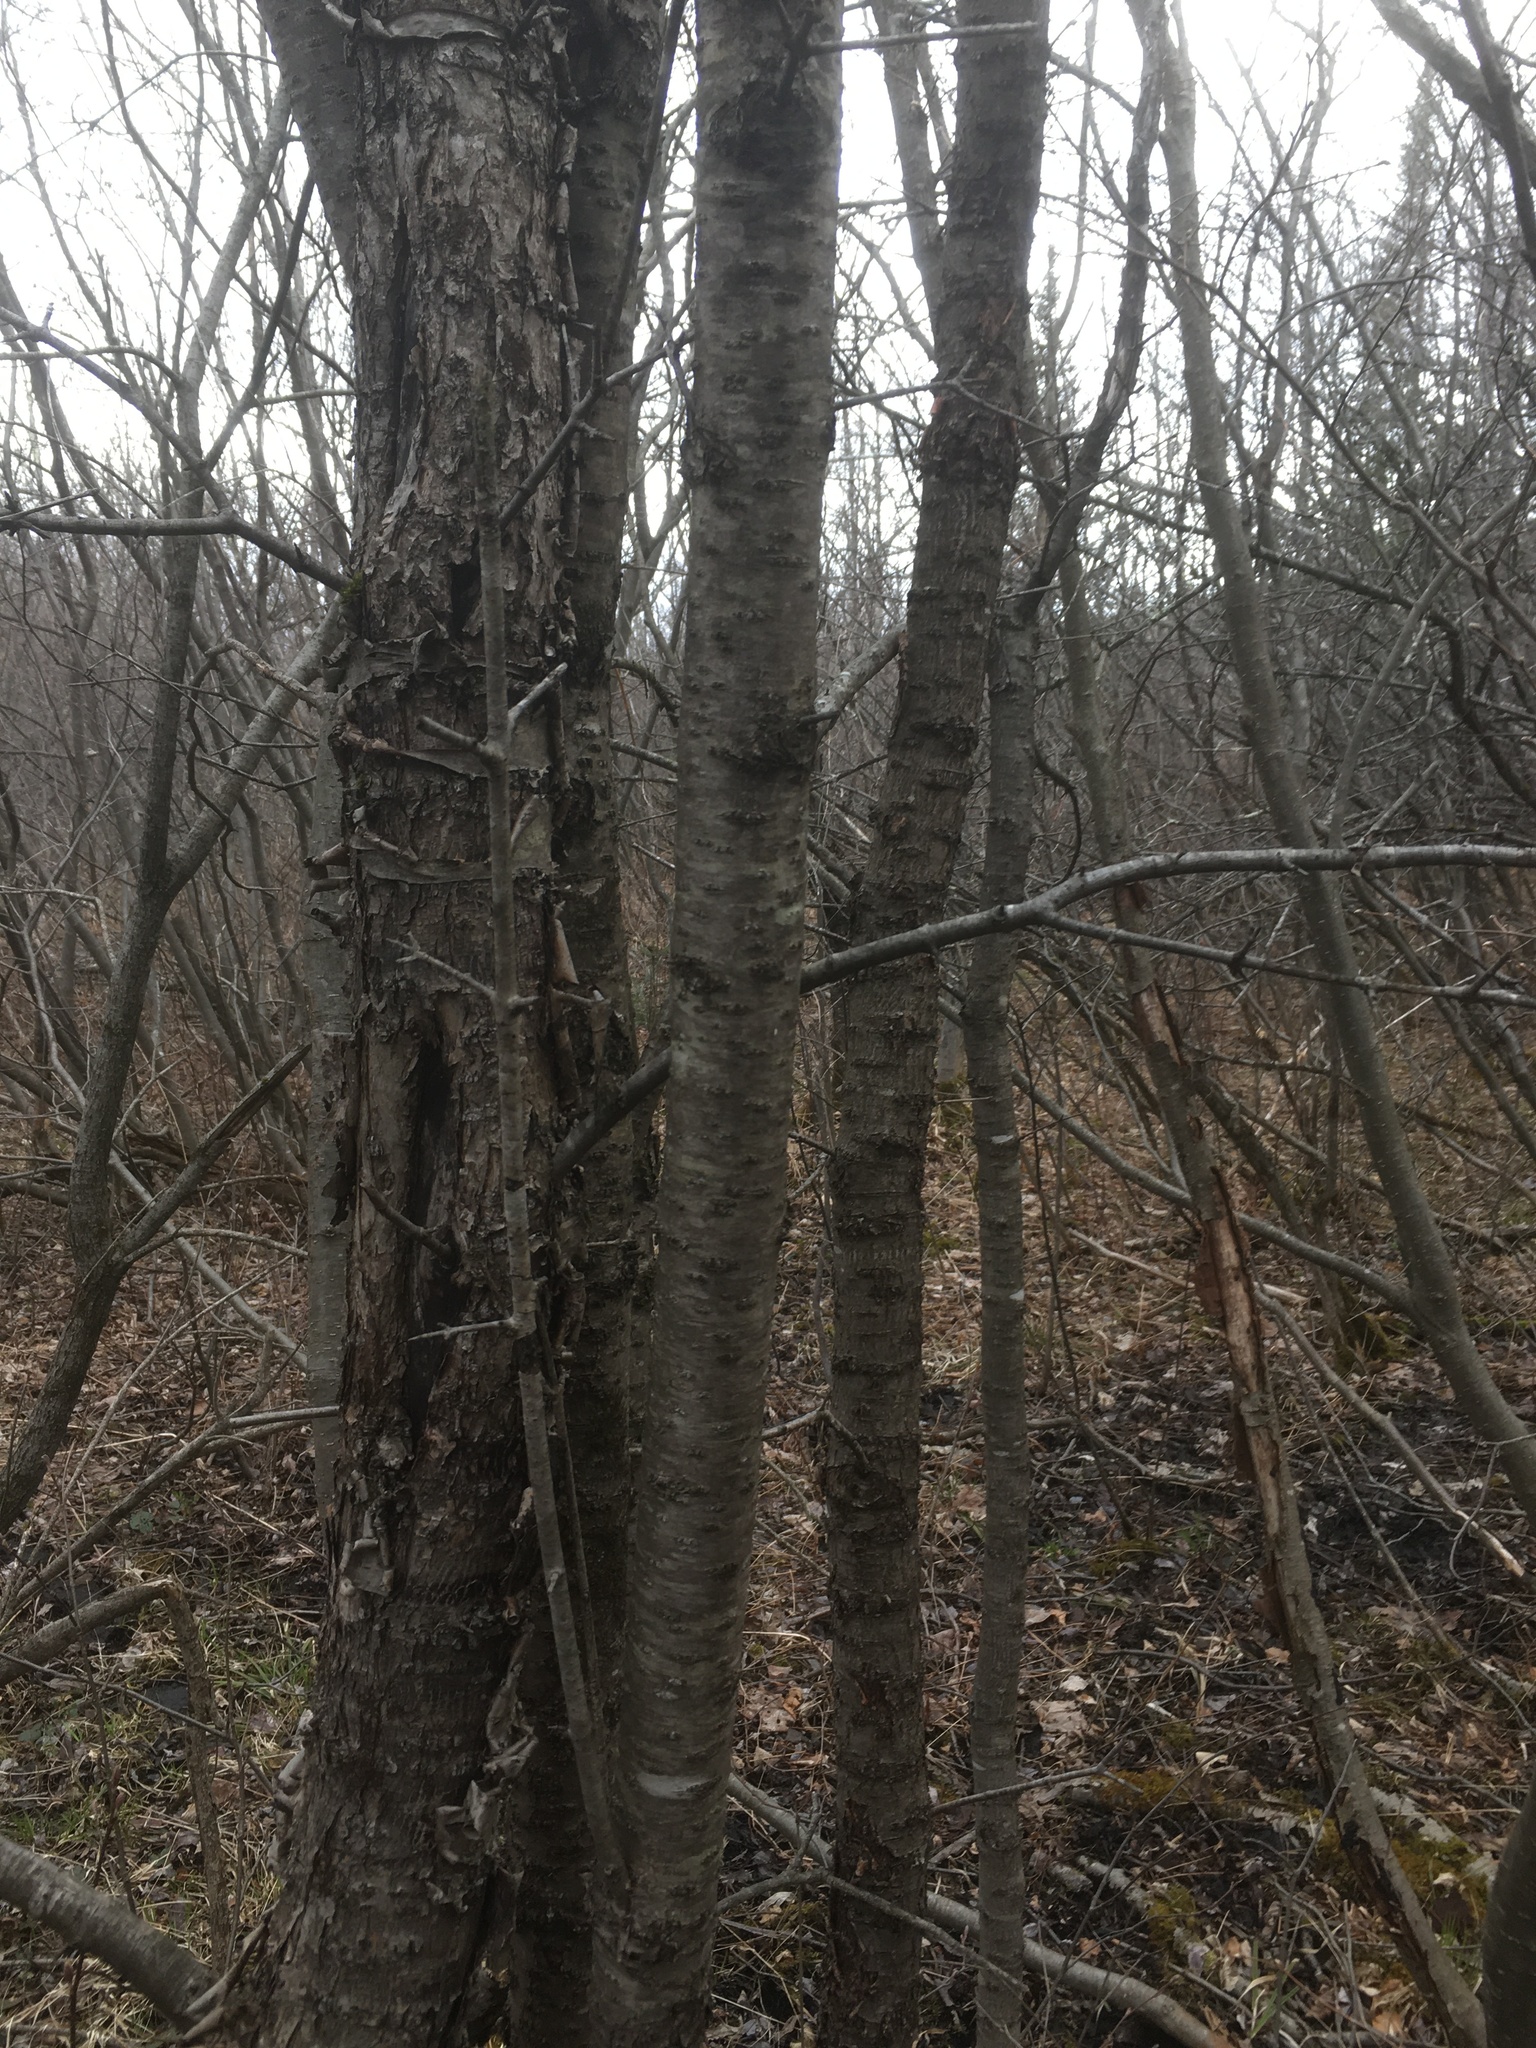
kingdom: Plantae
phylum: Tracheophyta
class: Magnoliopsida
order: Rosales
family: Rhamnaceae
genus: Rhamnus
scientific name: Rhamnus cathartica
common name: Common buckthorn
